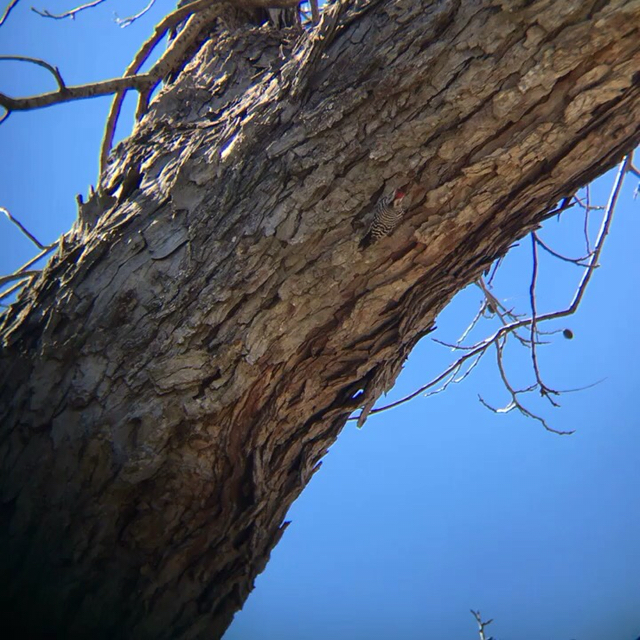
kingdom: Animalia
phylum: Chordata
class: Aves
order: Piciformes
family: Picidae
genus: Dryobates
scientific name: Dryobates scalaris
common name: Ladder-backed woodpecker
